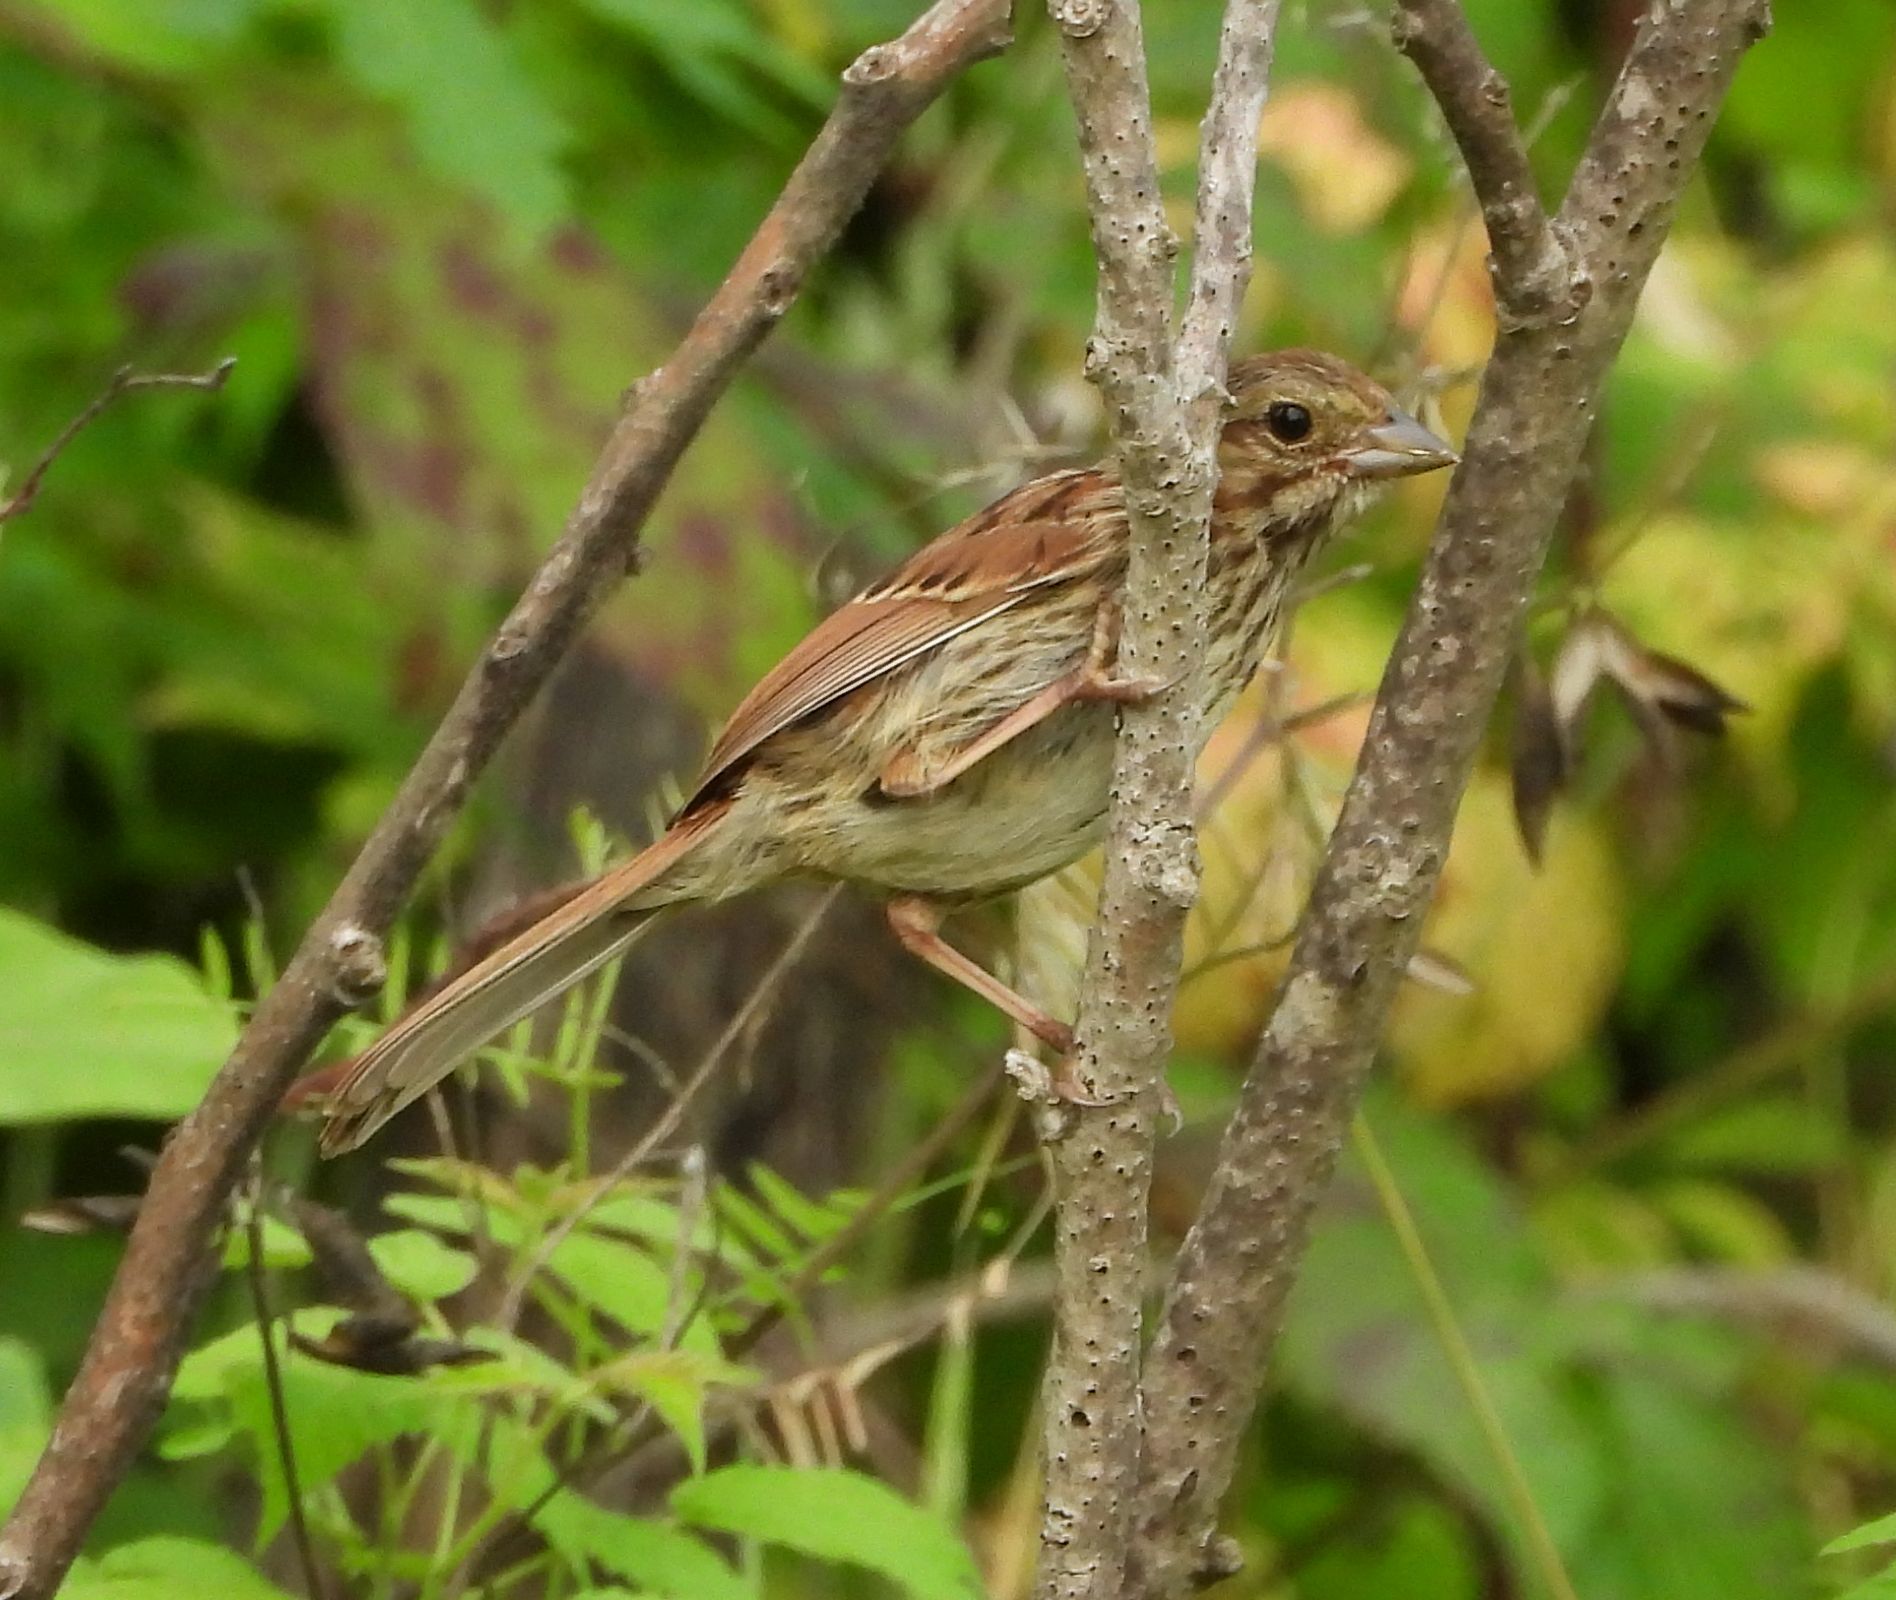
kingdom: Animalia
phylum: Chordata
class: Aves
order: Passeriformes
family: Passerellidae
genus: Melospiza
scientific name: Melospiza melodia
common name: Song sparrow
